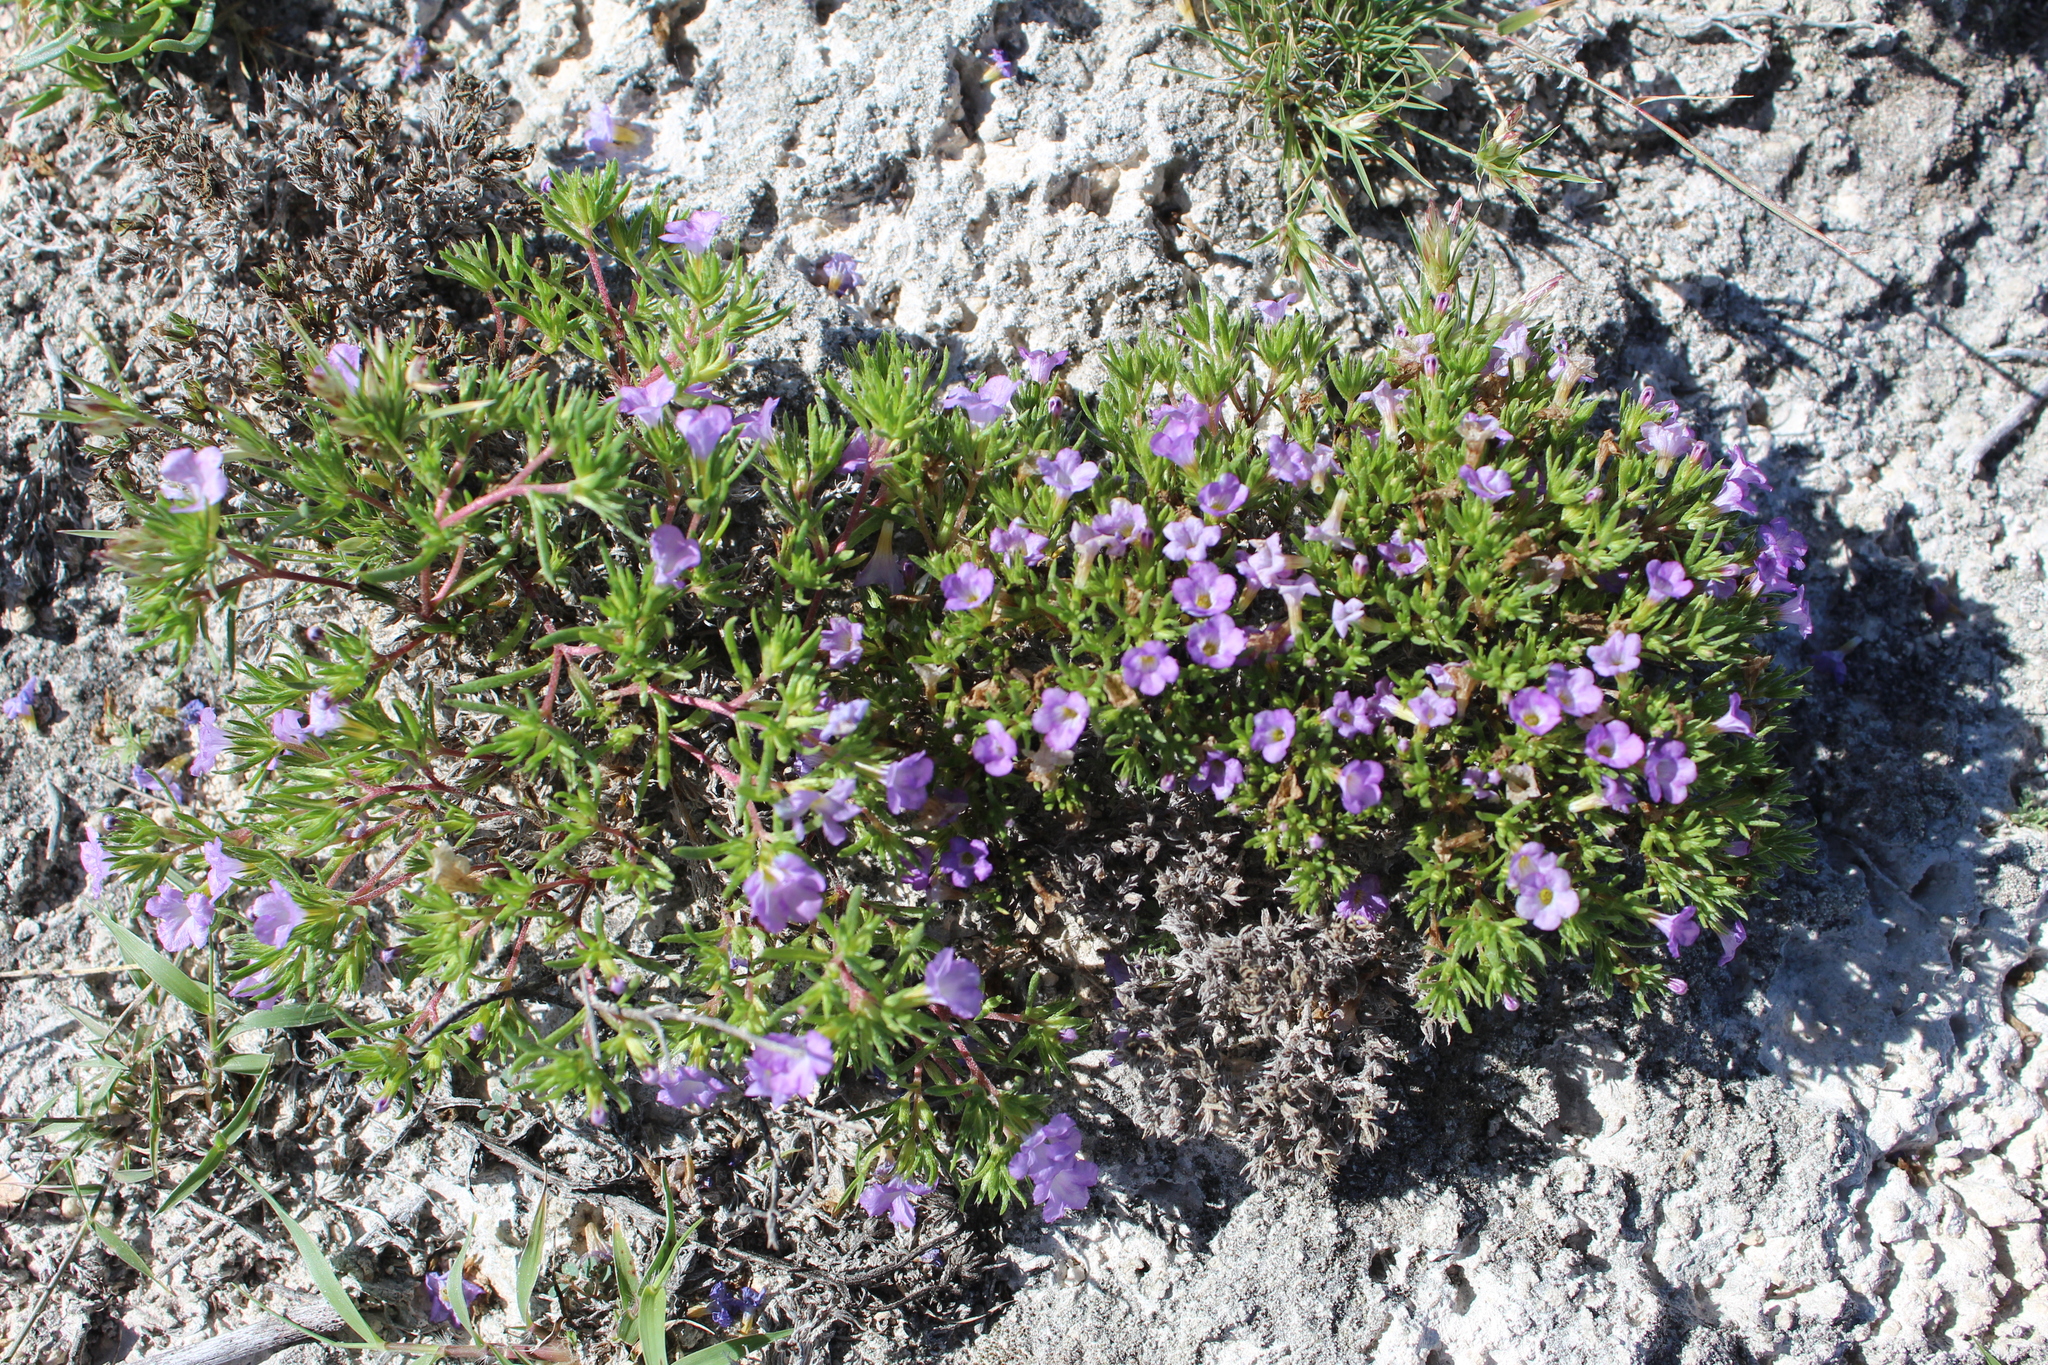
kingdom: Plantae
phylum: Tracheophyta
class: Magnoliopsida
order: Boraginales
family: Namaceae
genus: Nama
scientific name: Nama hispida
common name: Bristly nama
